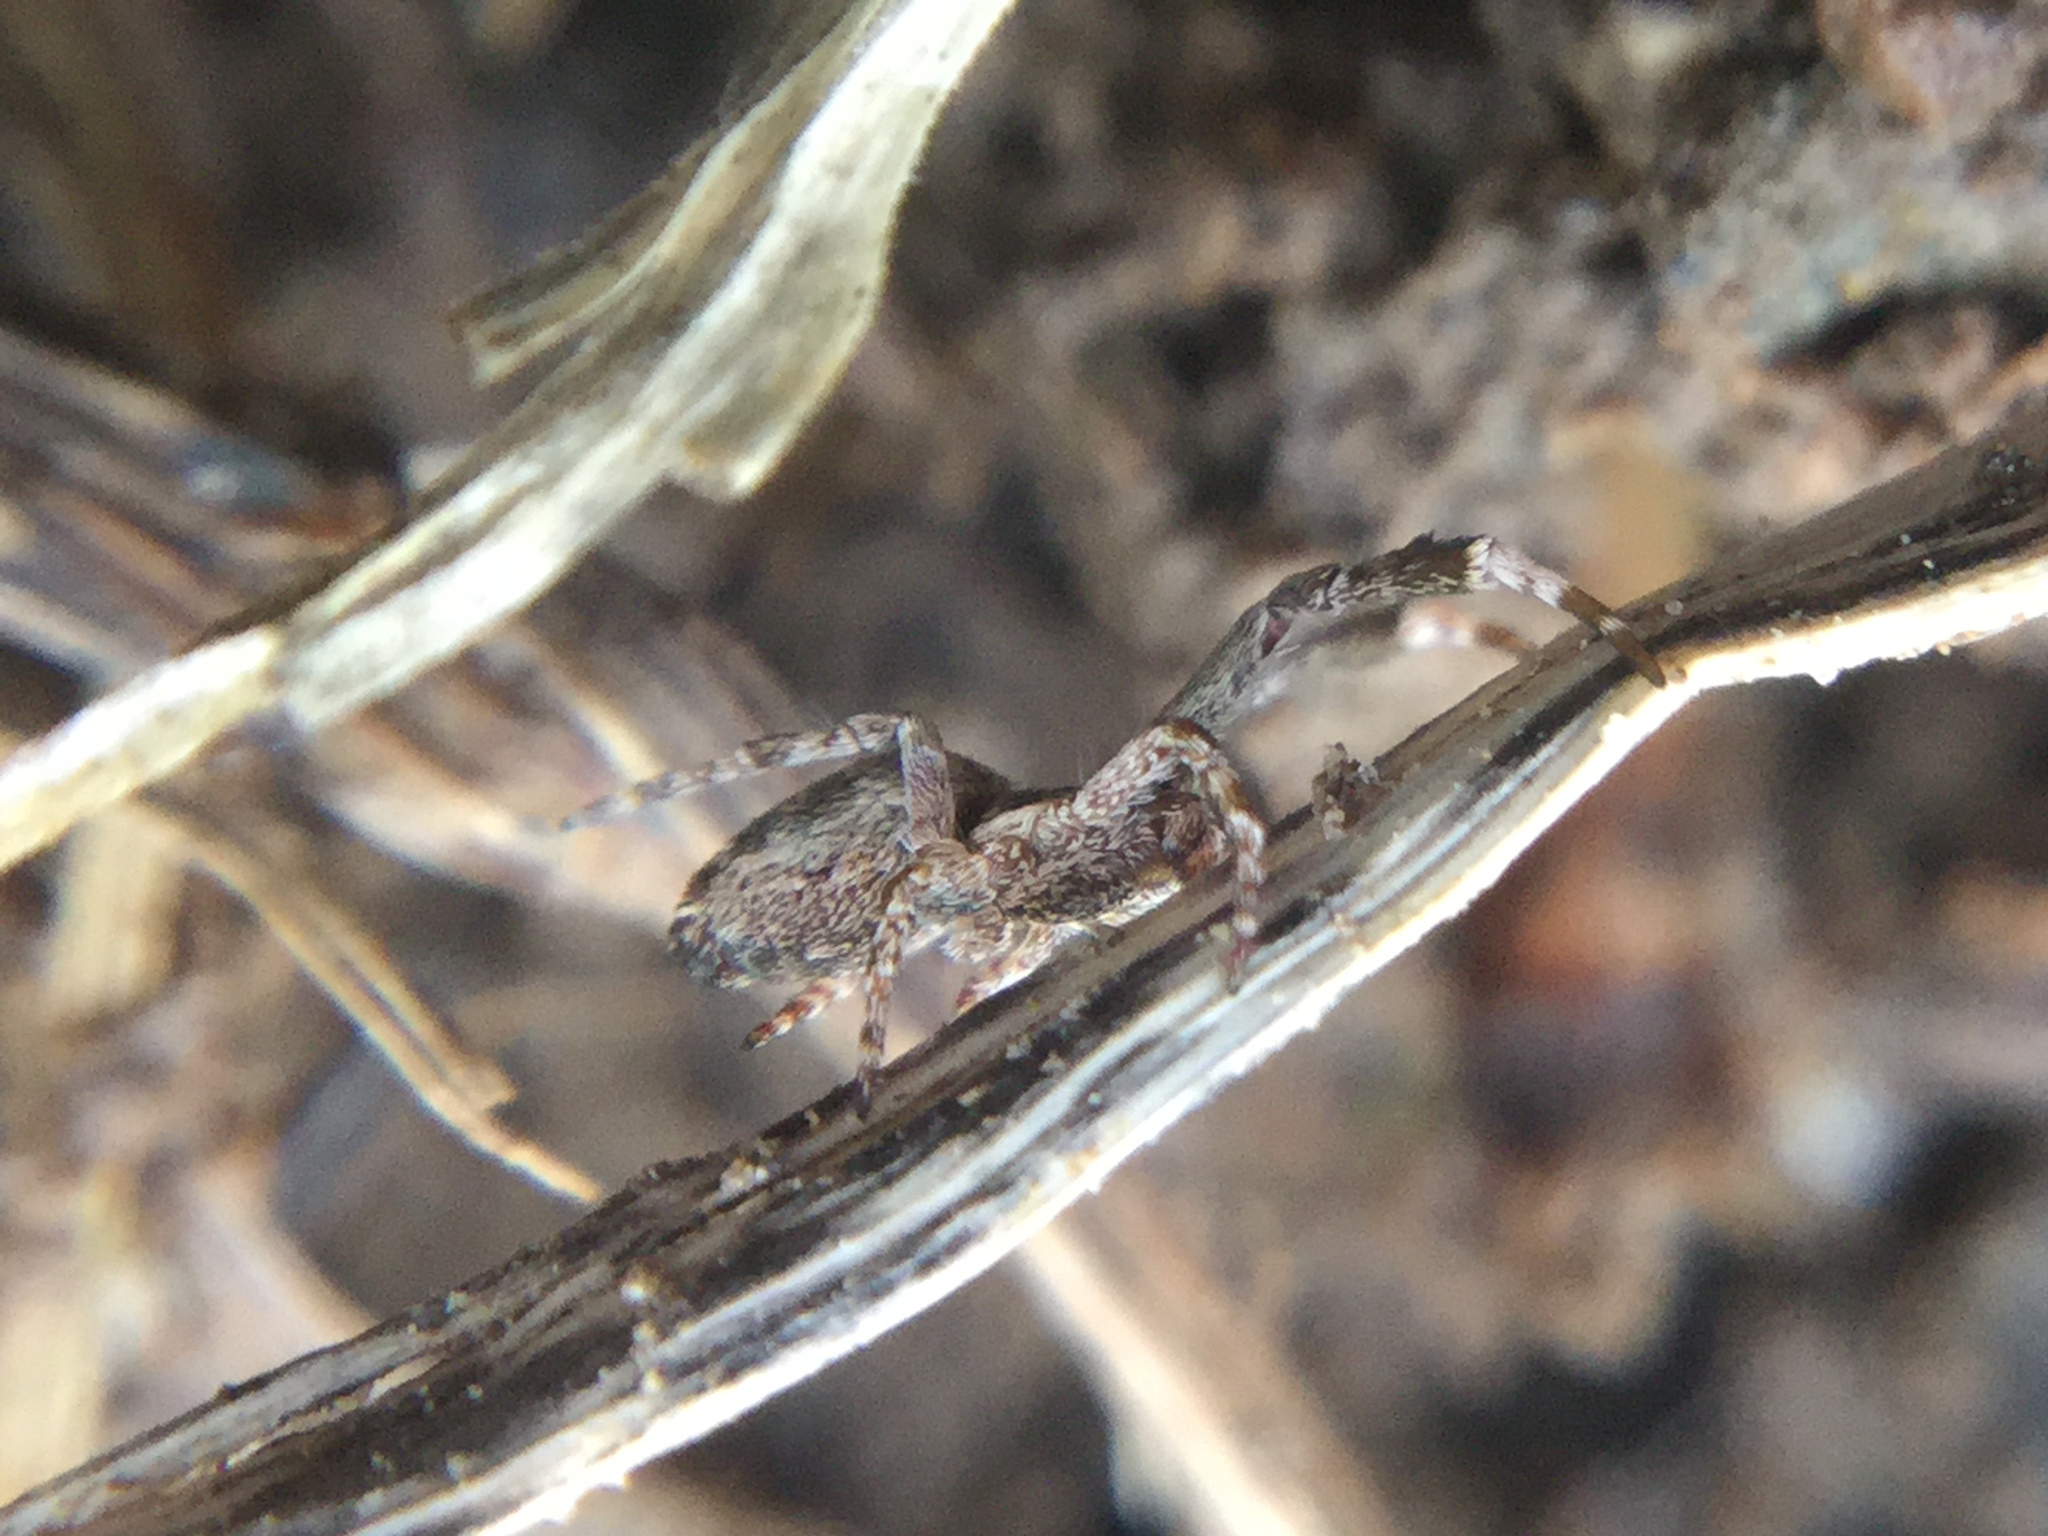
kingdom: Animalia
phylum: Arthropoda
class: Arachnida
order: Araneae
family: Uloboridae
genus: Uloborus
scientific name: Uloborus glomosus
